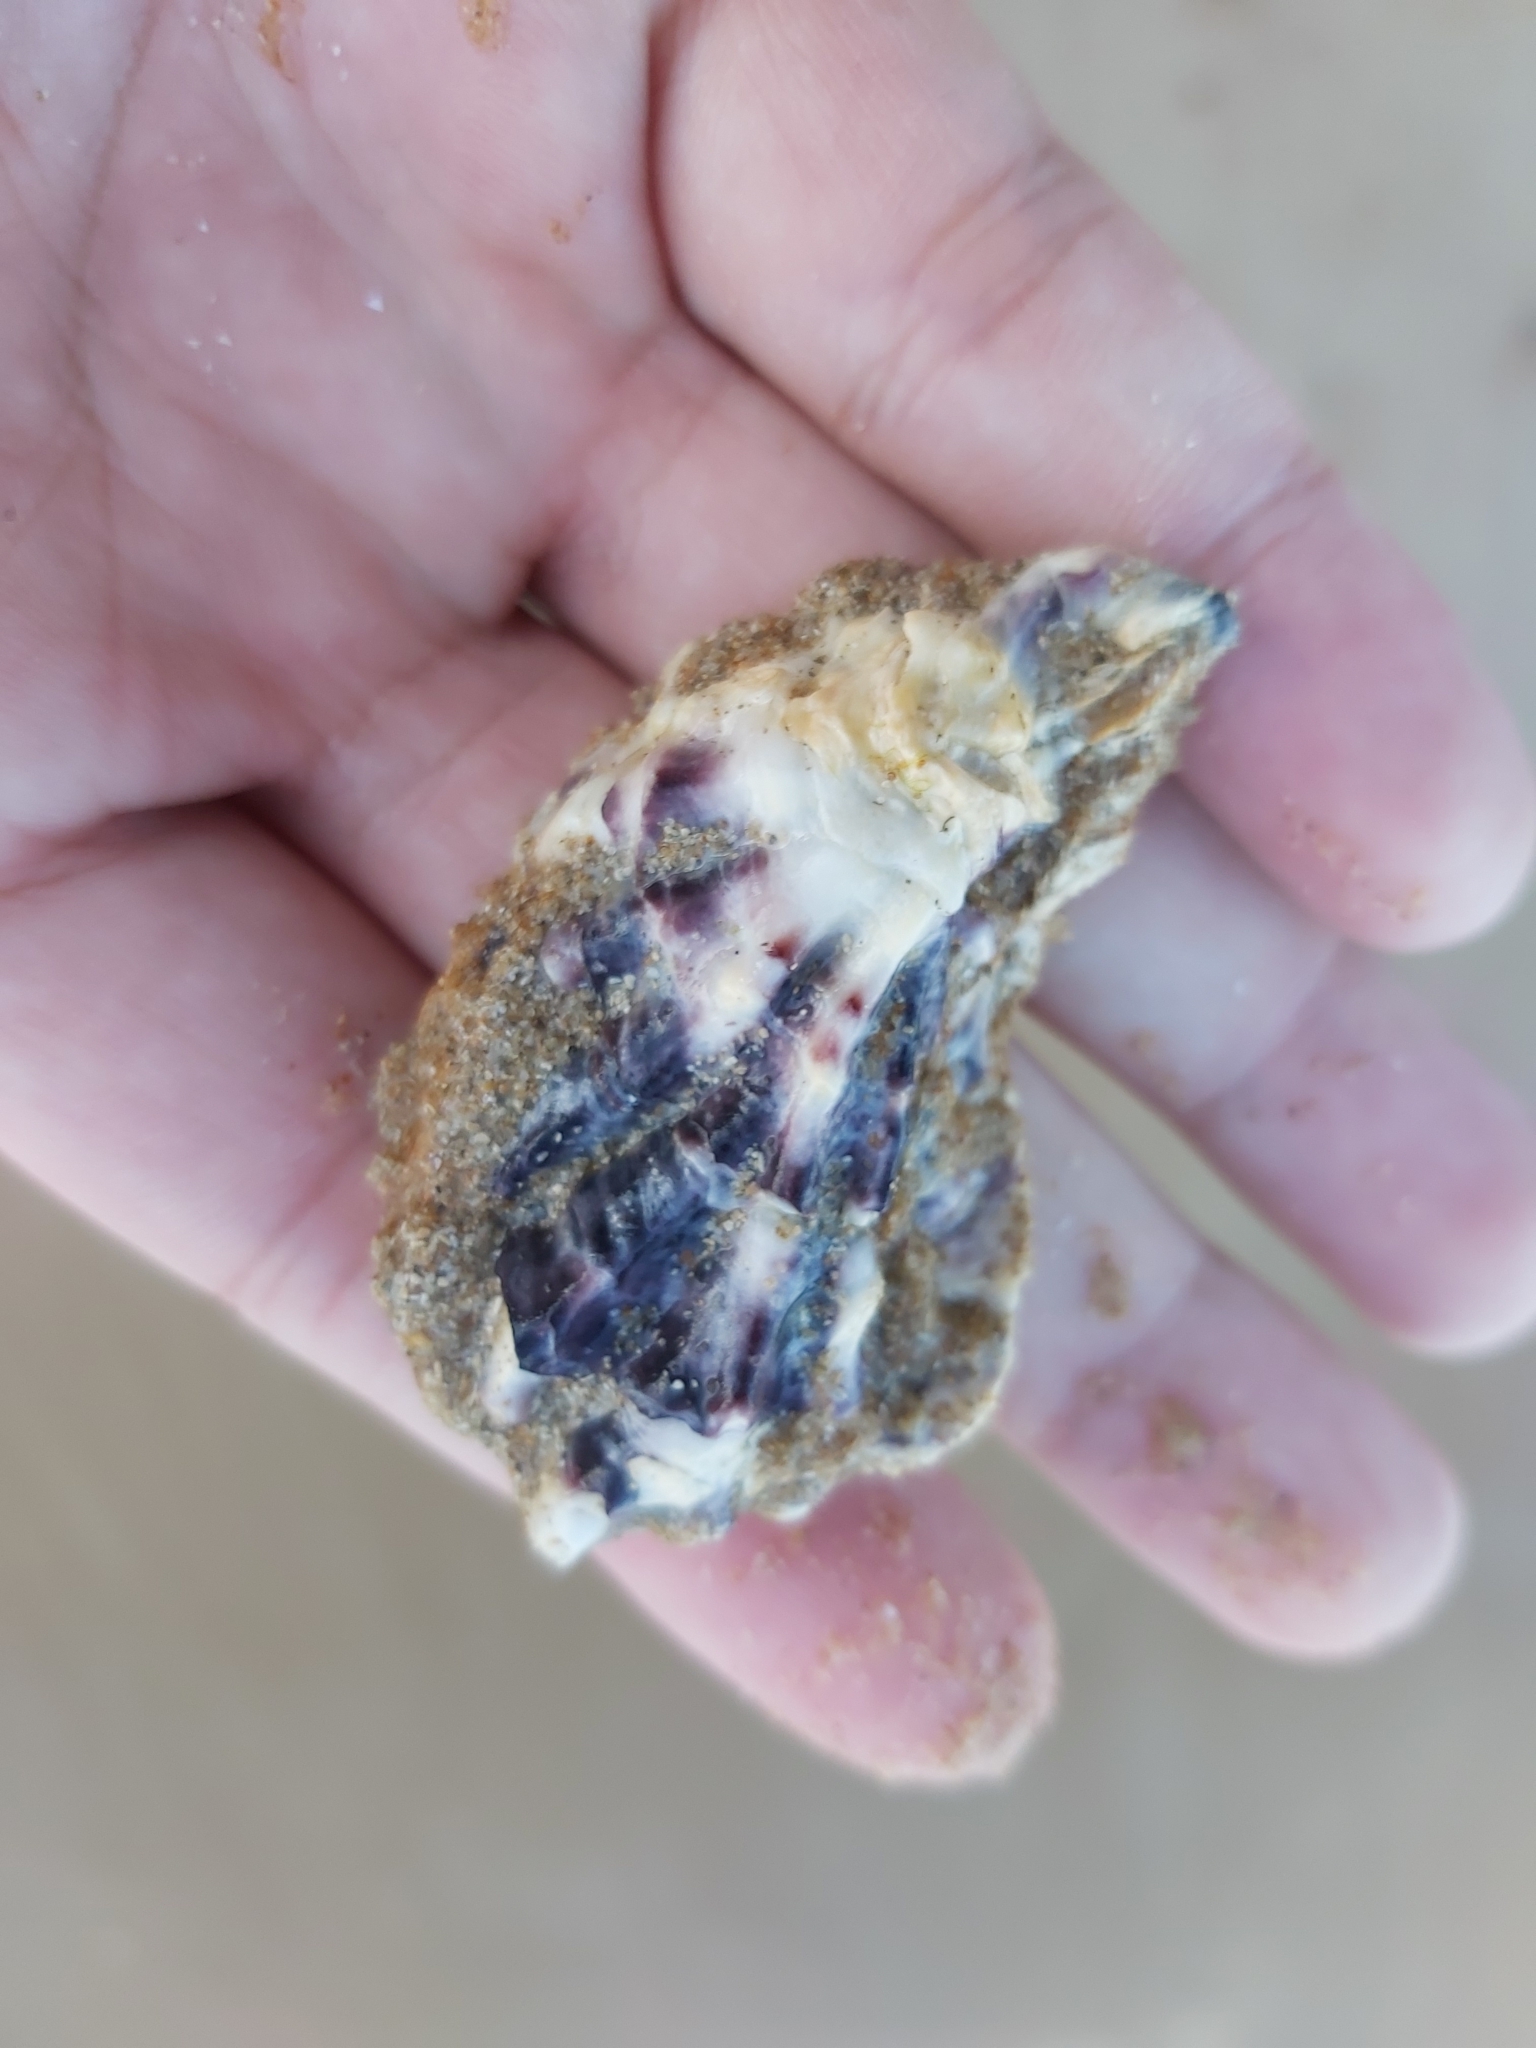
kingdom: Animalia
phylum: Mollusca
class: Bivalvia
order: Ostreida
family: Ostreidae
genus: Saccostrea
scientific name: Saccostrea glomerata
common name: Sydney cupped oyster
